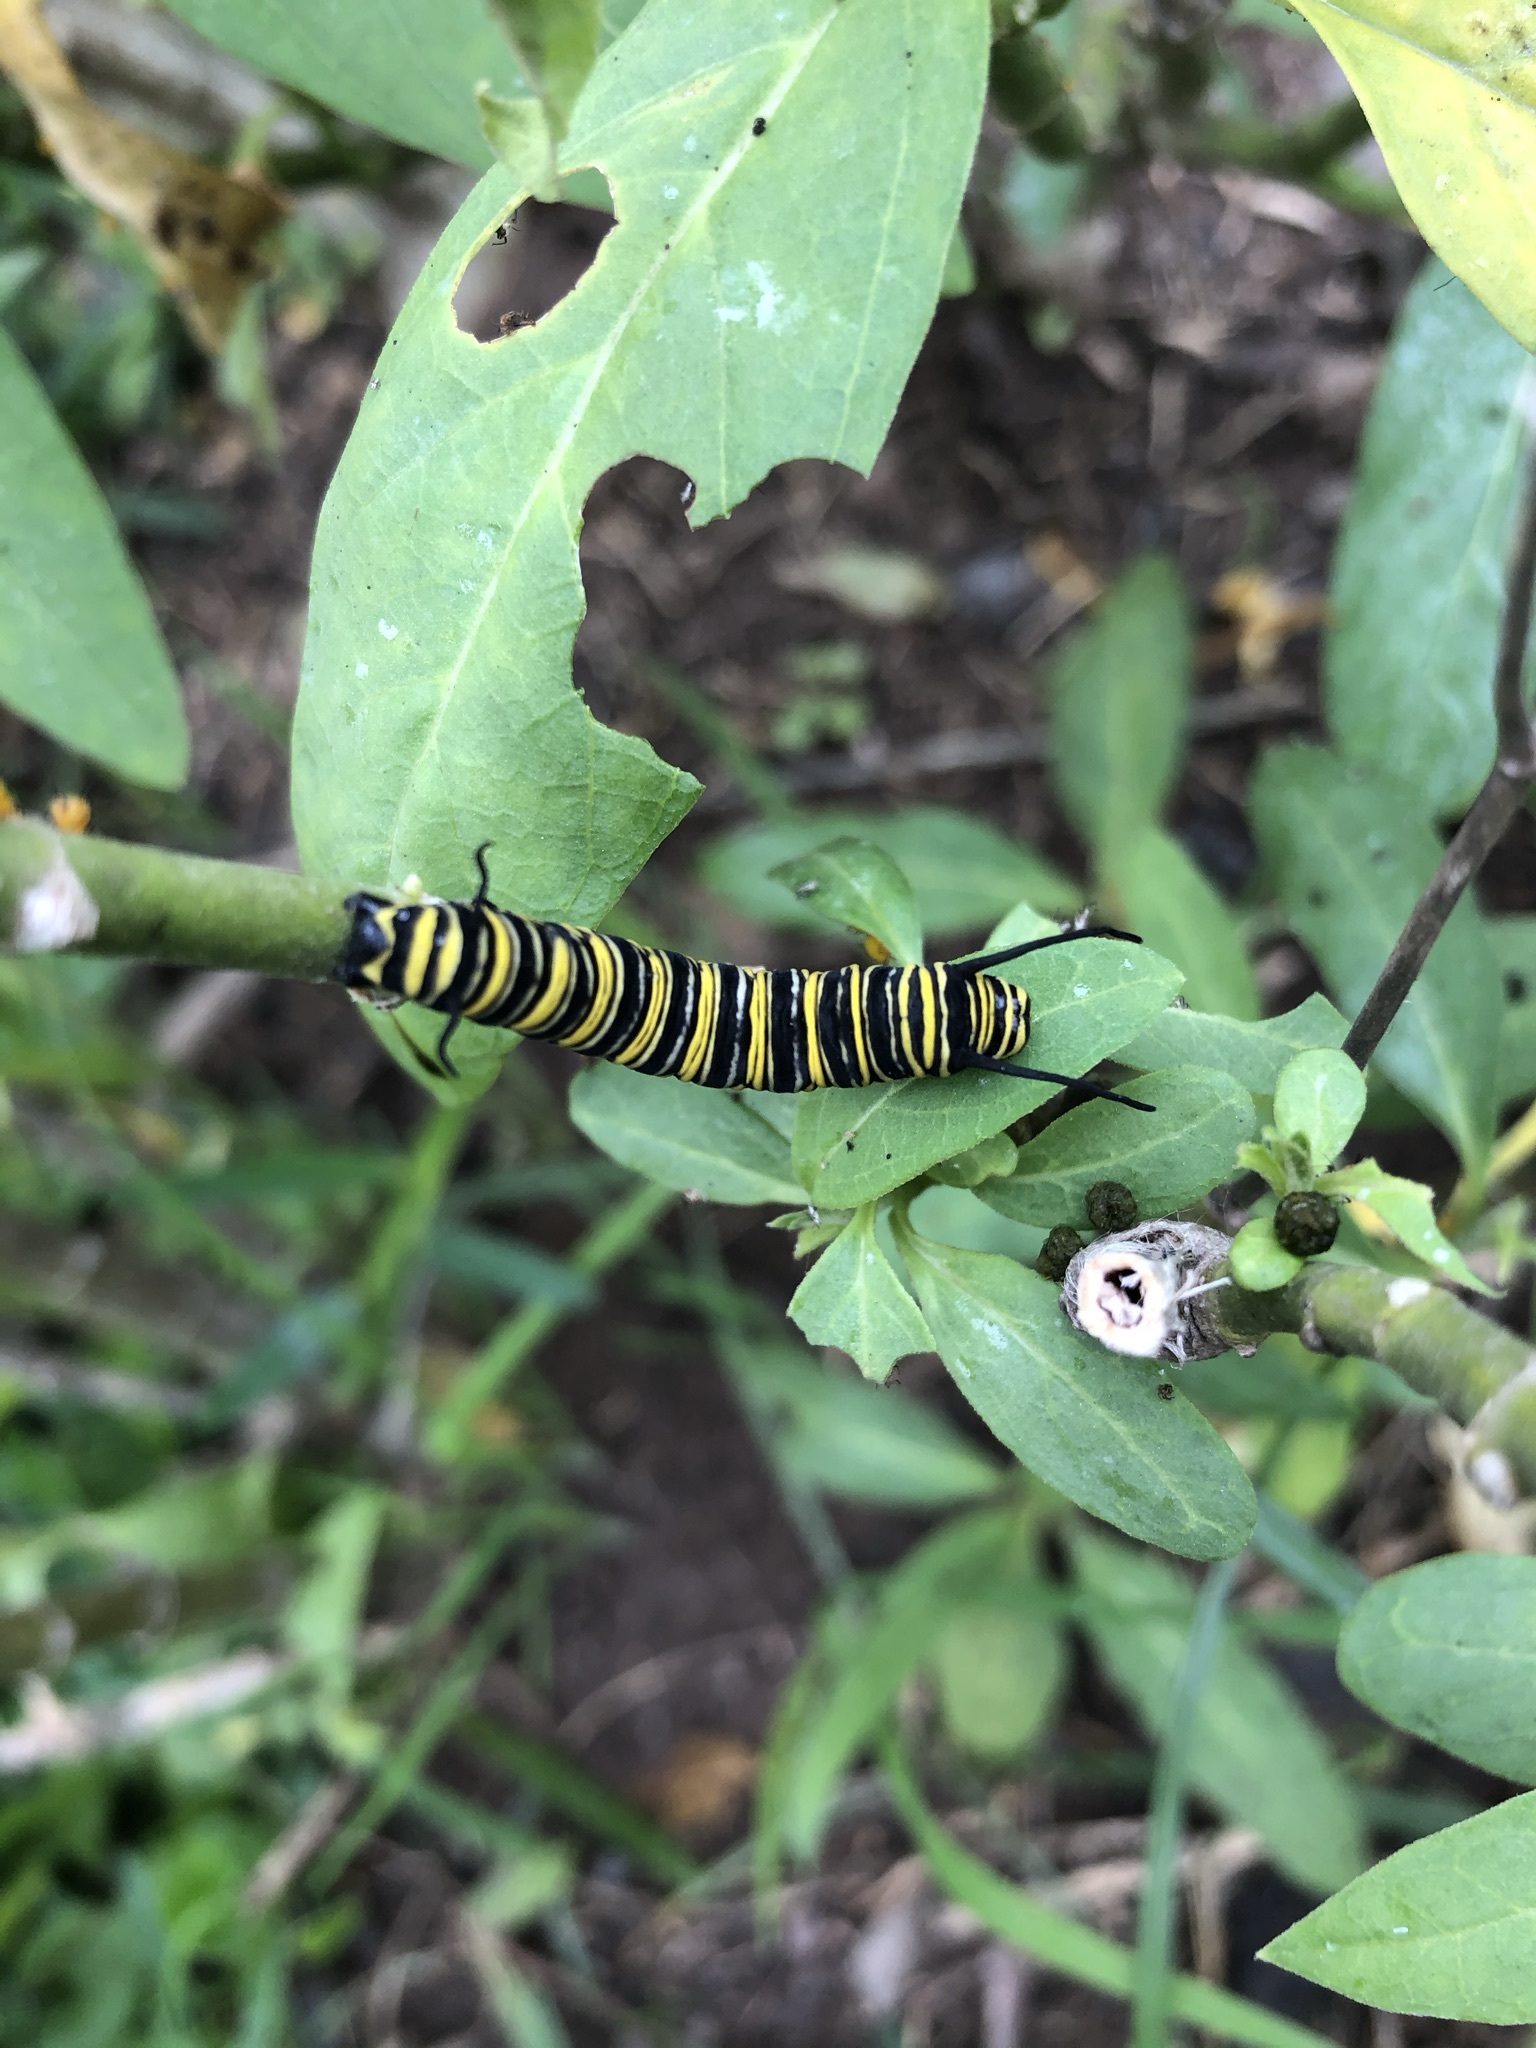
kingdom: Animalia
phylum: Arthropoda
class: Insecta
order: Lepidoptera
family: Nymphalidae
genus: Danaus
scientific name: Danaus plexippus
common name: Monarch
